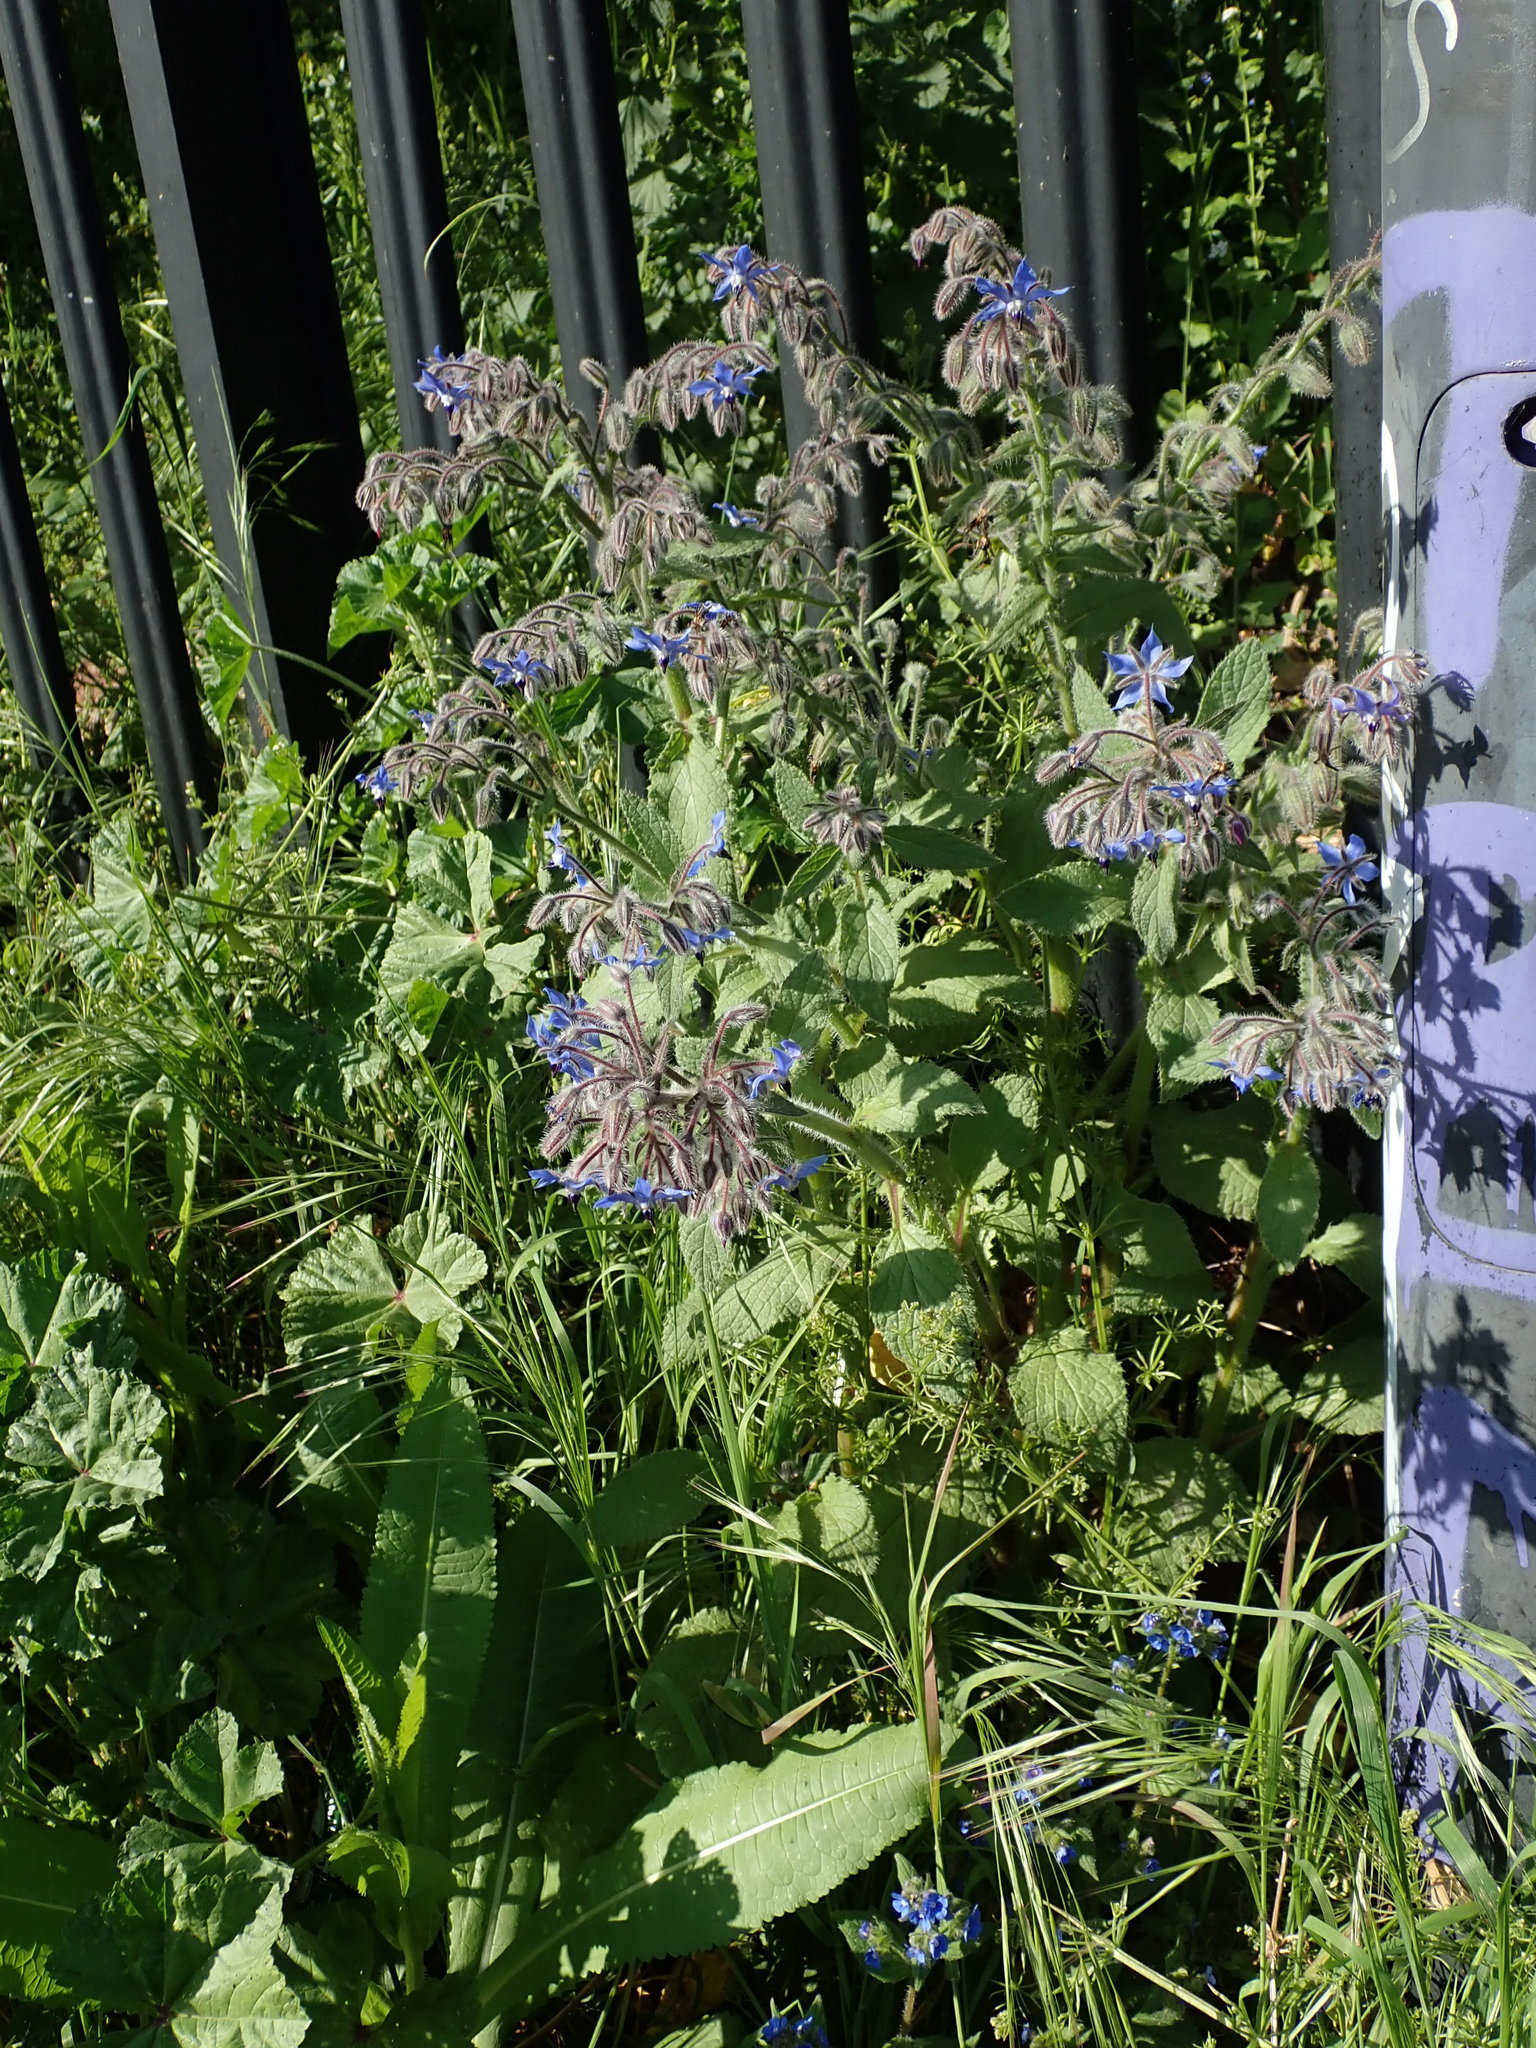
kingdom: Plantae
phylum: Tracheophyta
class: Magnoliopsida
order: Boraginales
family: Boraginaceae
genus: Borago
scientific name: Borago officinalis
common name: Borage
